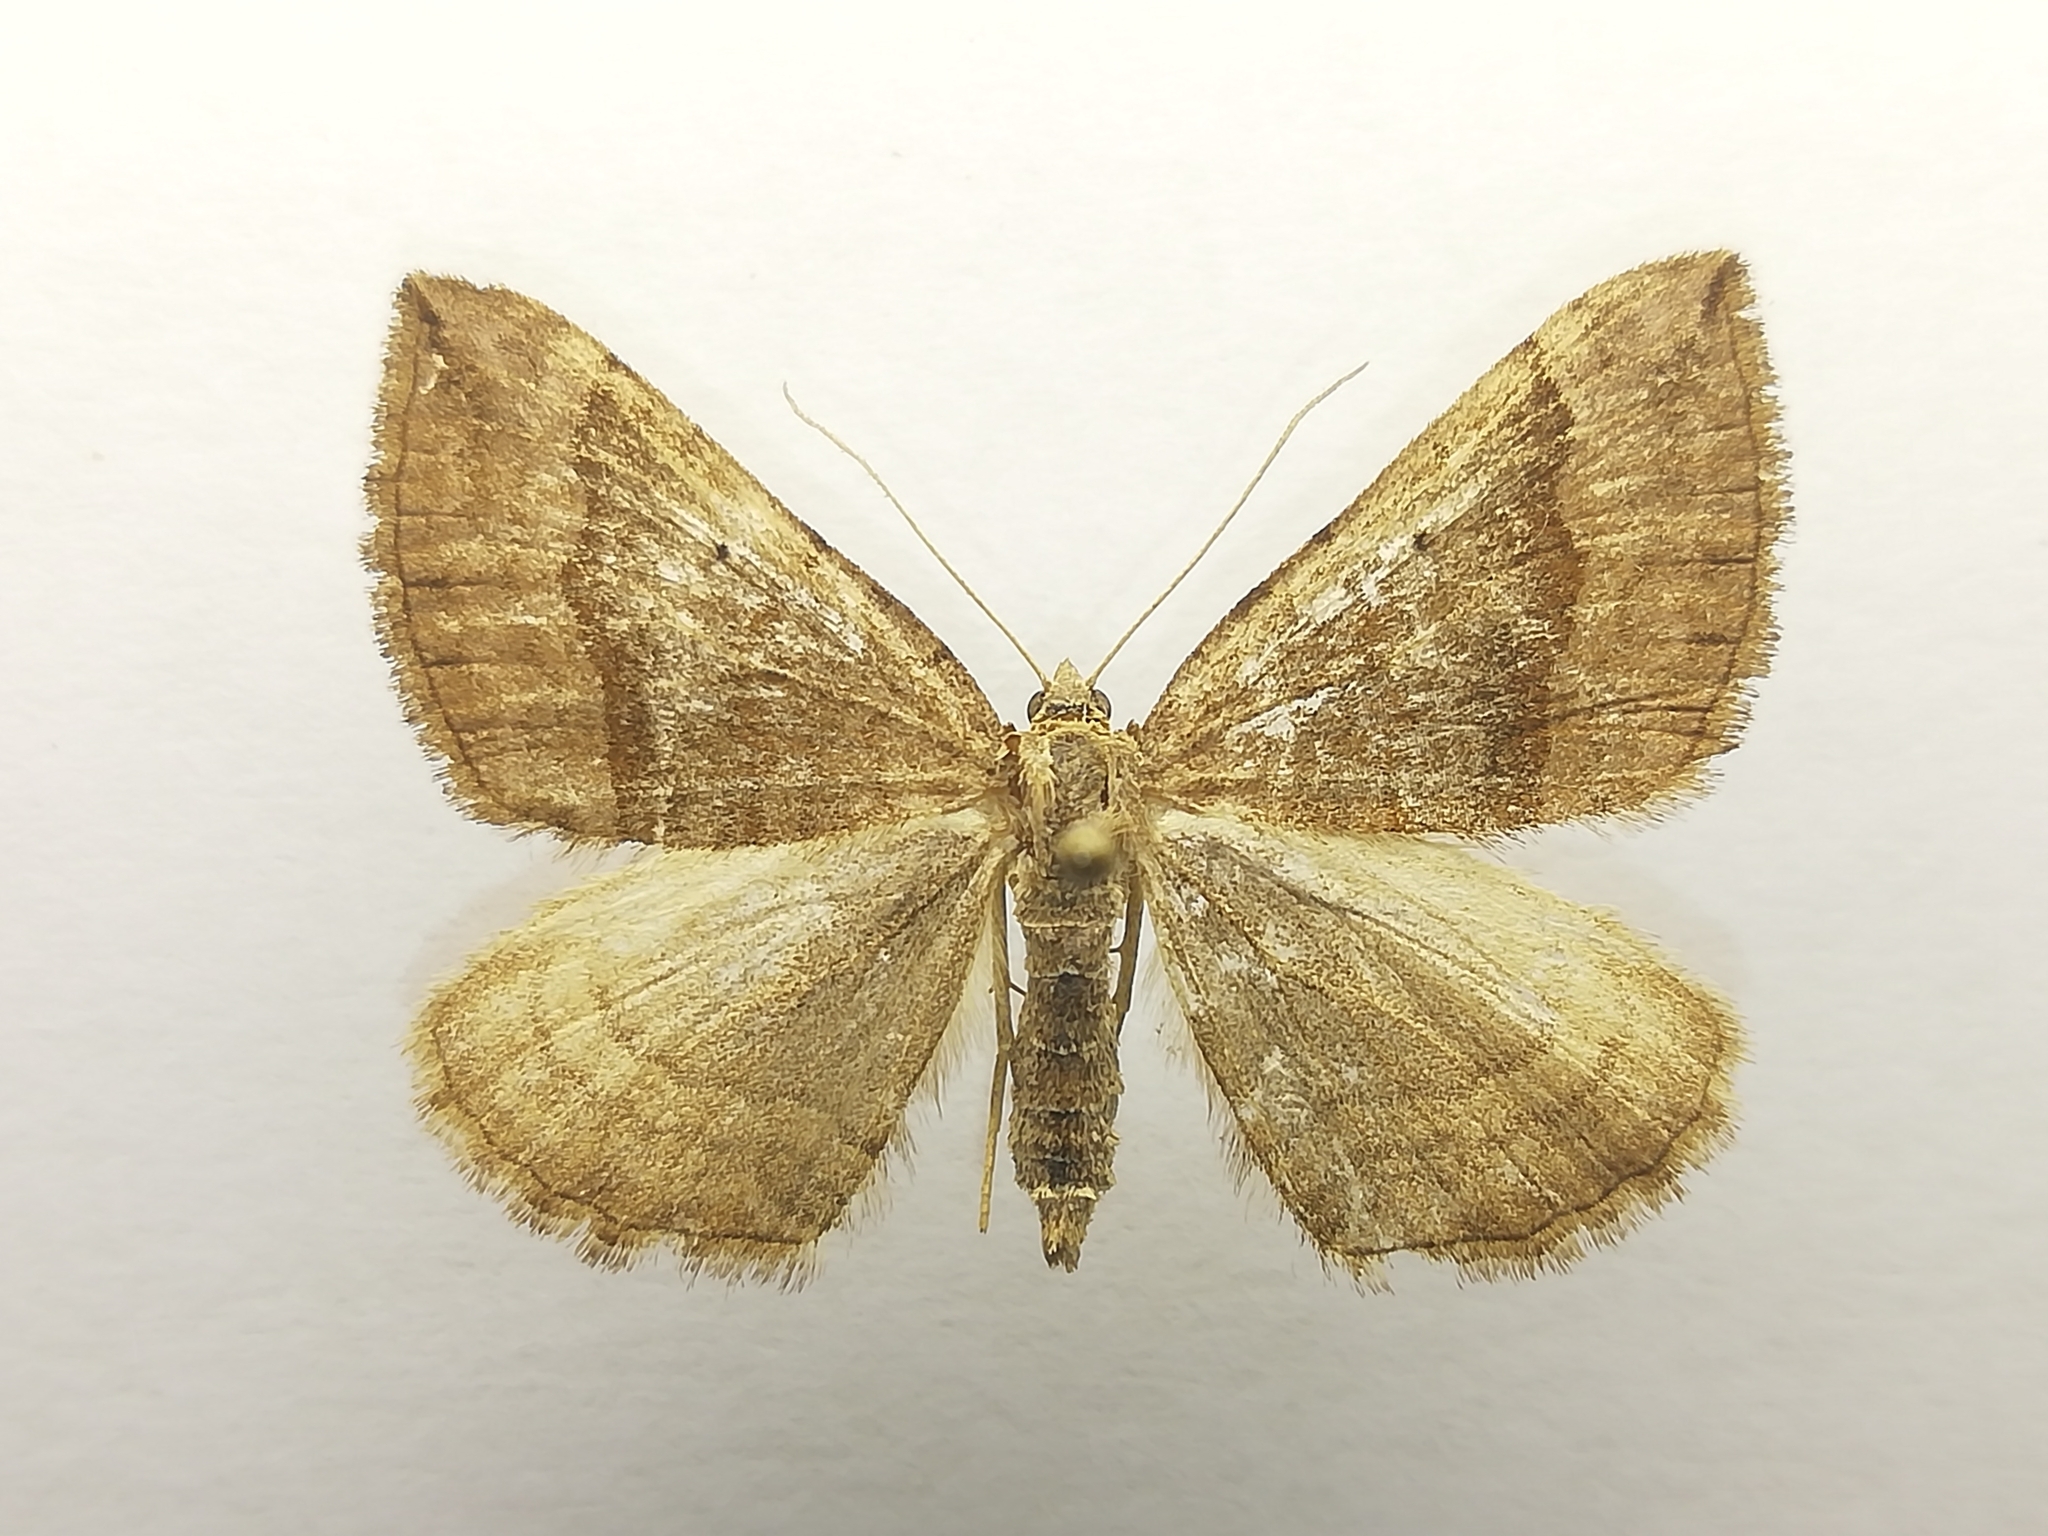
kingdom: Animalia
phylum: Arthropoda
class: Insecta
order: Lepidoptera
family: Geometridae
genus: Scotopteryx
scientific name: Scotopteryx chenopodiata
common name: Shaded broad-bar
